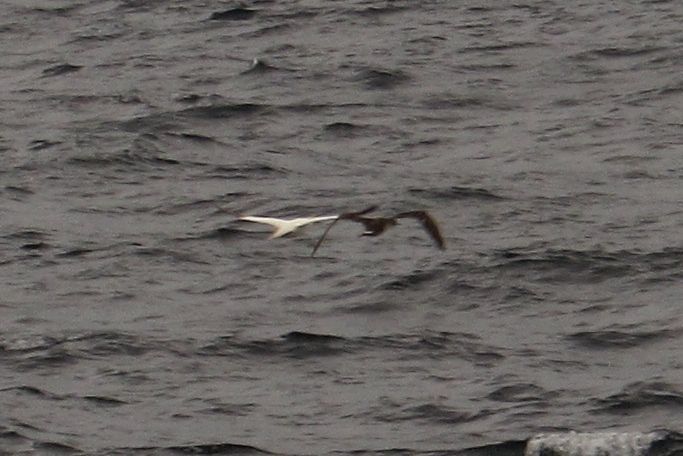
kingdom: Animalia
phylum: Chordata
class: Aves
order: Suliformes
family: Sulidae
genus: Morus
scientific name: Morus bassanus
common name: Northern gannet
